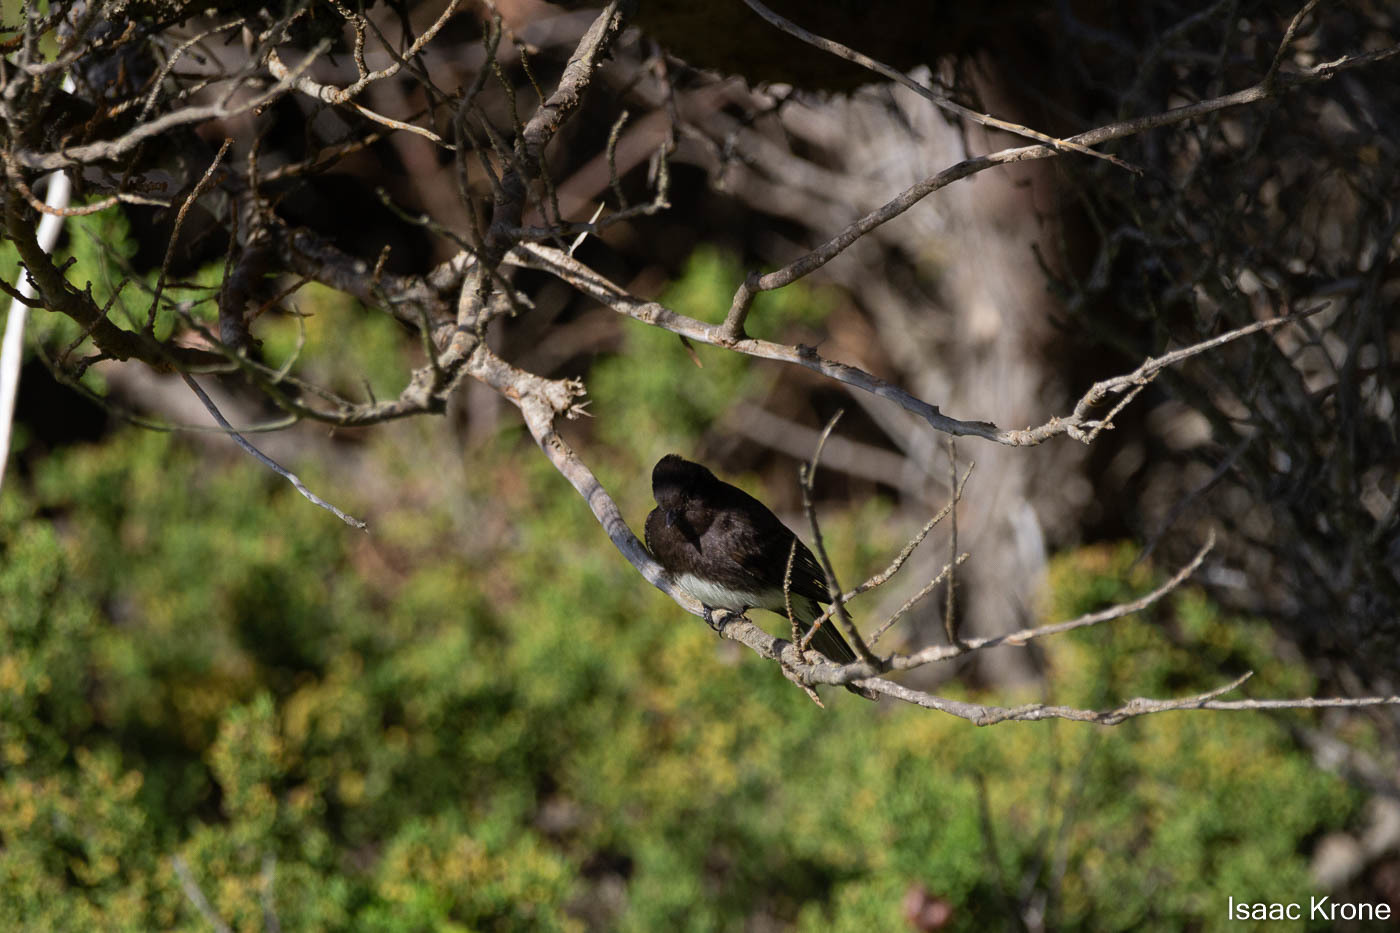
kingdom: Animalia
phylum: Chordata
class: Aves
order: Passeriformes
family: Tyrannidae
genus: Sayornis
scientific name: Sayornis nigricans
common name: Black phoebe
